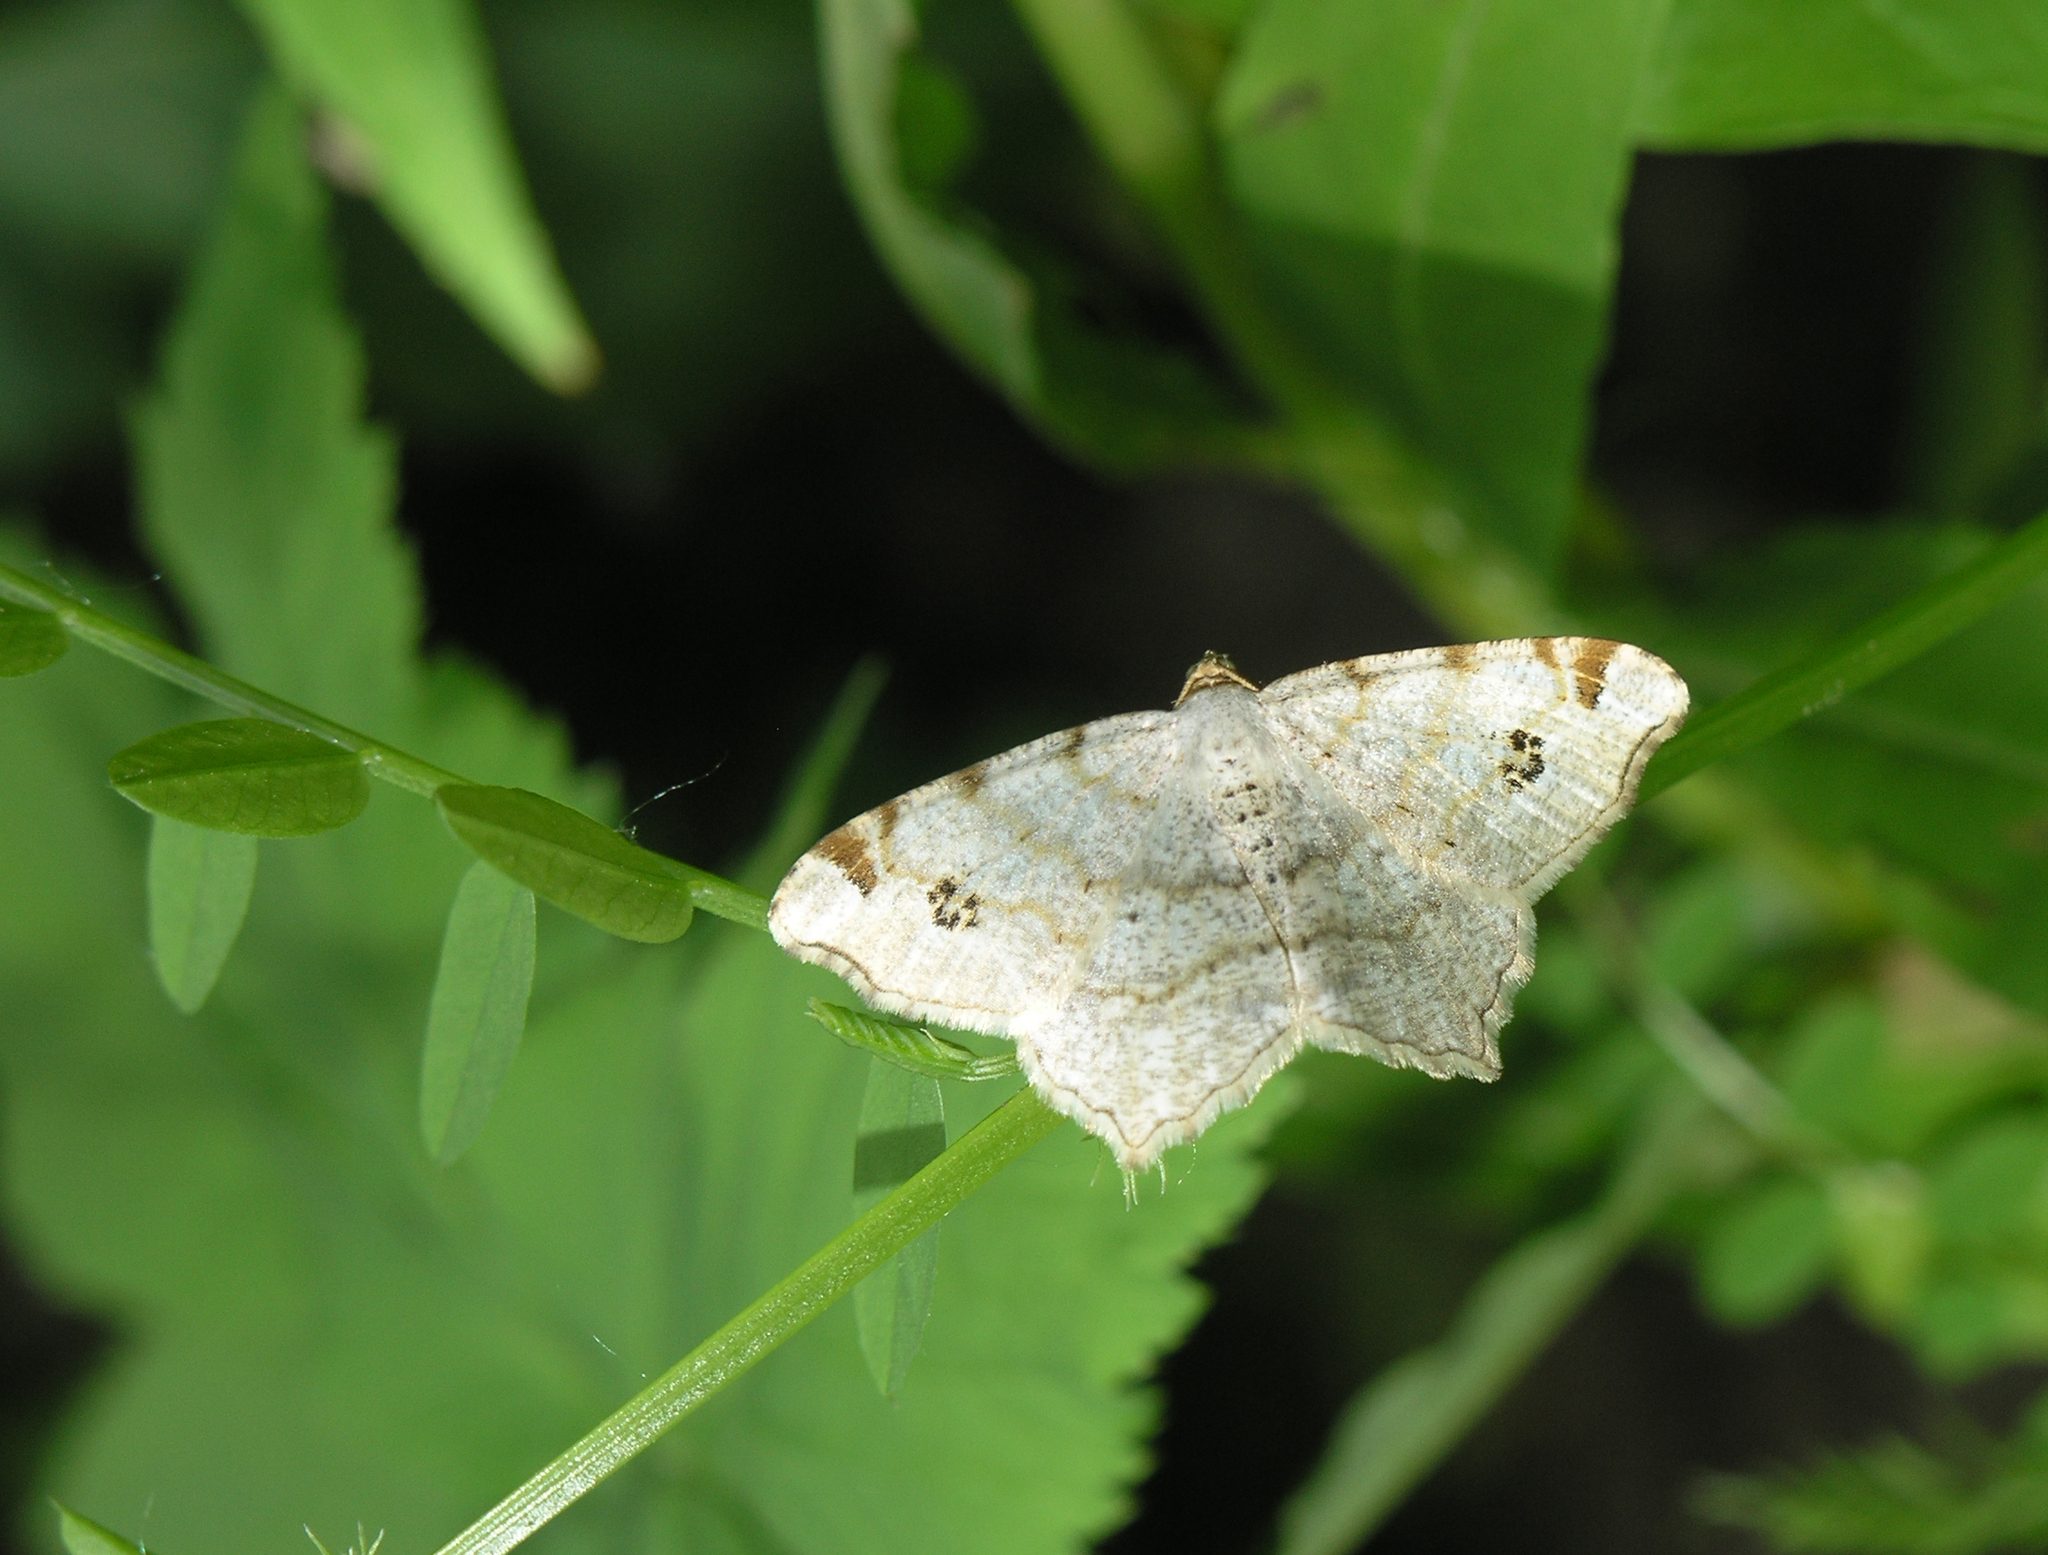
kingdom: Animalia
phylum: Arthropoda
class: Insecta
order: Lepidoptera
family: Geometridae
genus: Macaria
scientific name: Macaria notata
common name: Peacock moth
